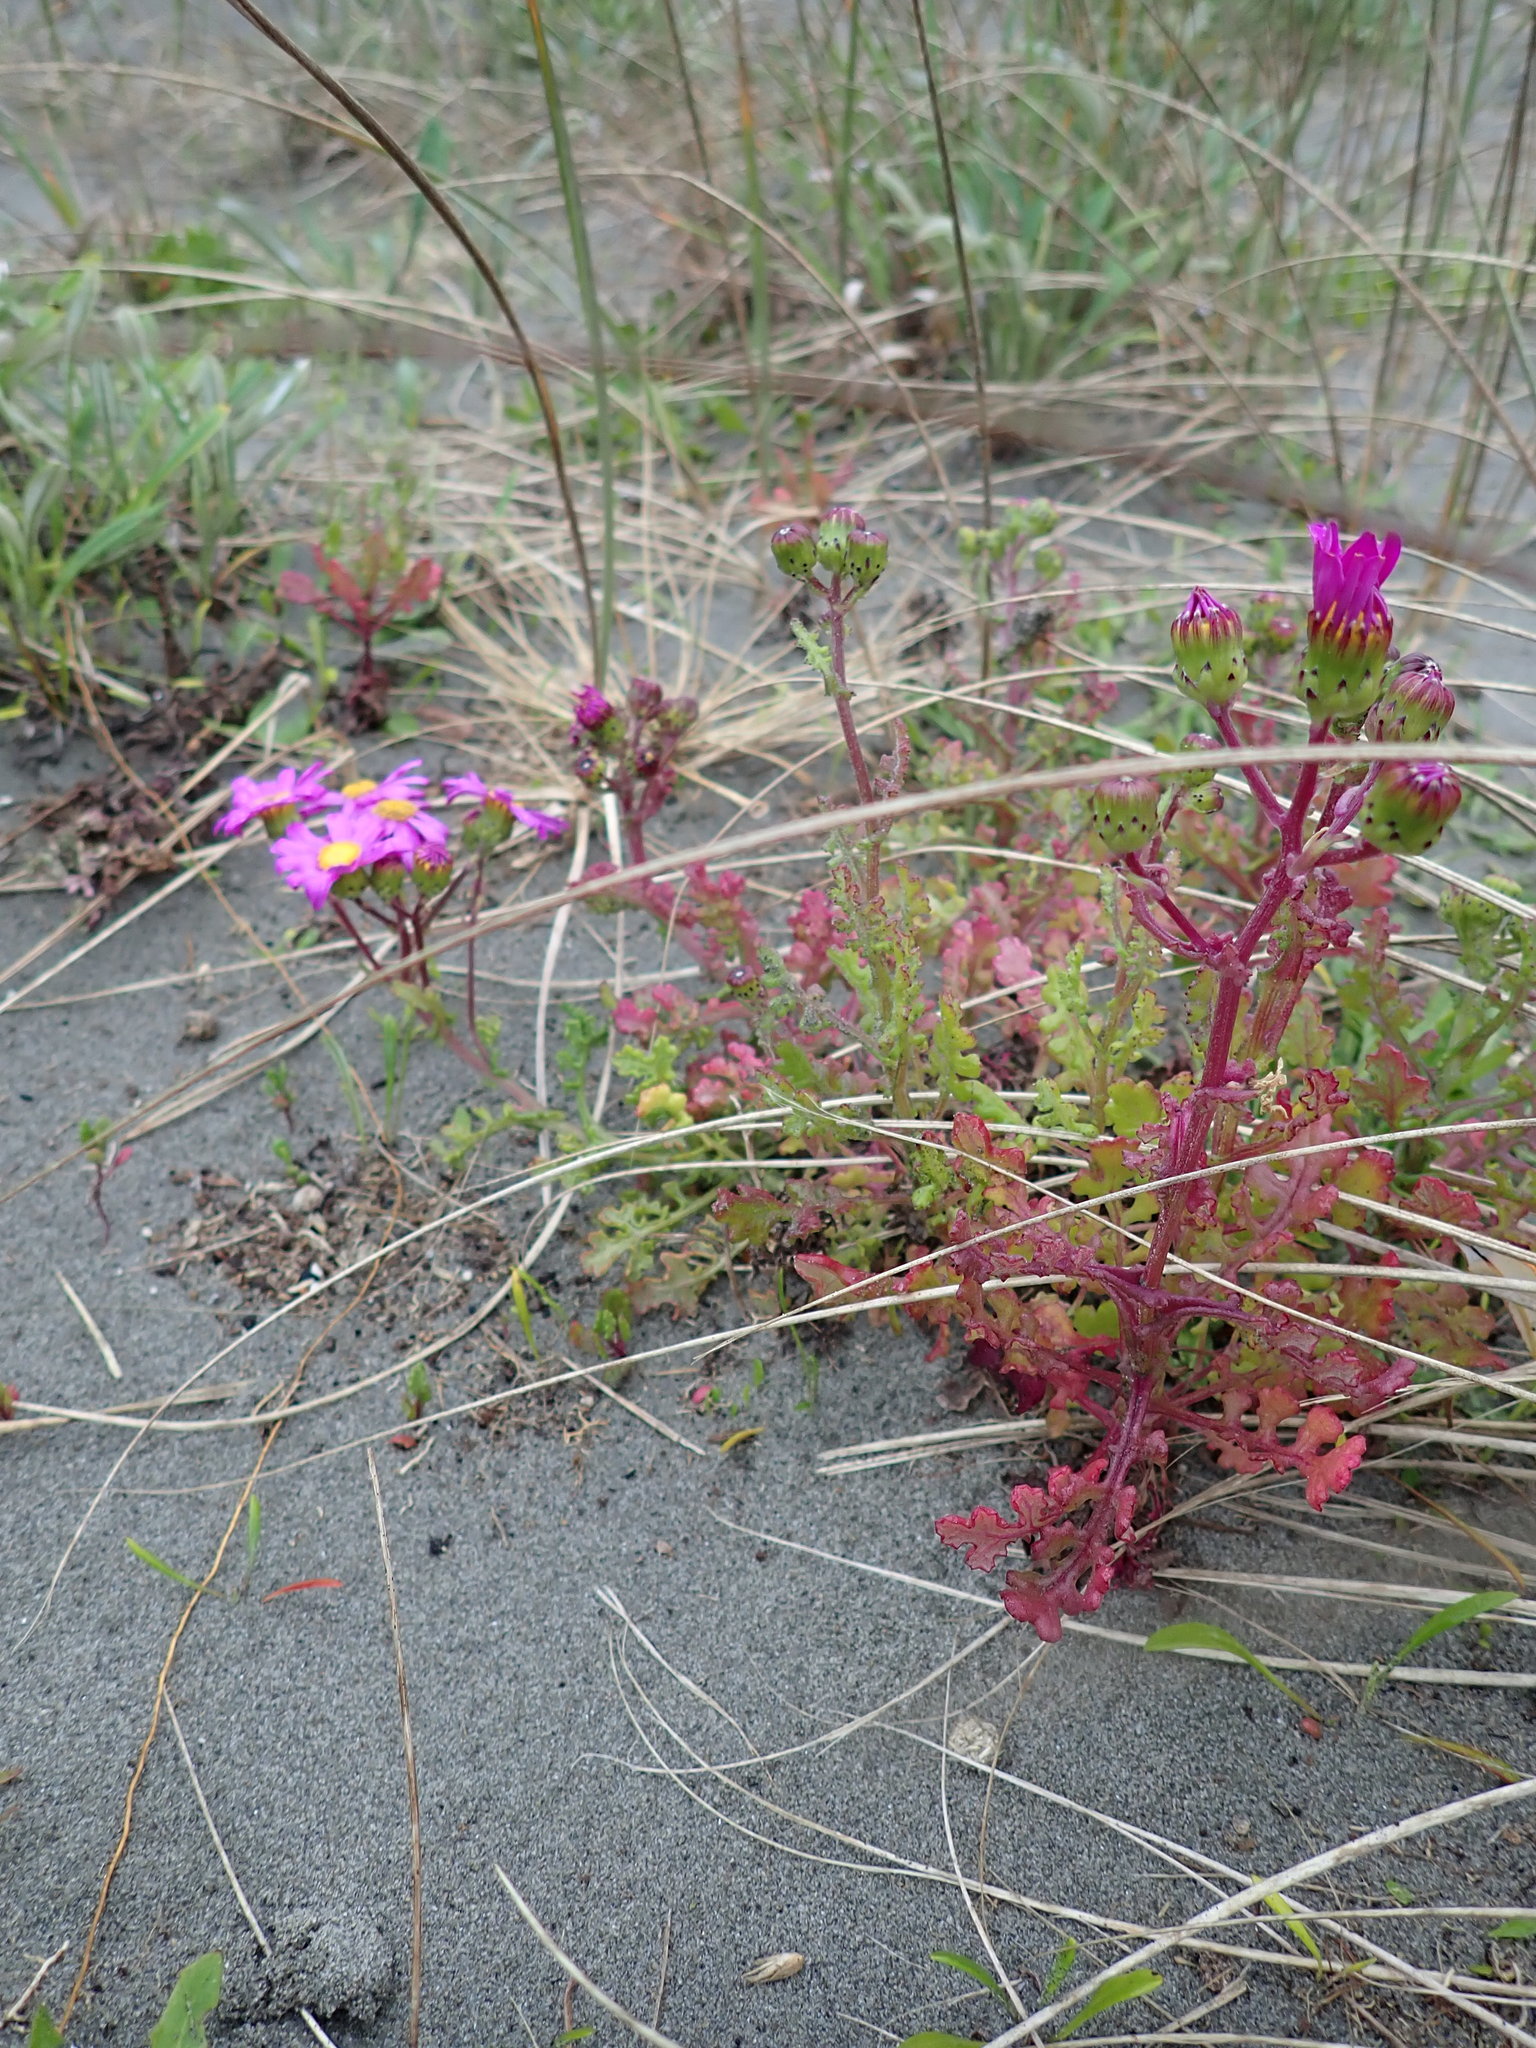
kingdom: Plantae
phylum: Tracheophyta
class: Magnoliopsida
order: Asterales
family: Asteraceae
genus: Senecio
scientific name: Senecio elegans
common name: Purple groundsel
